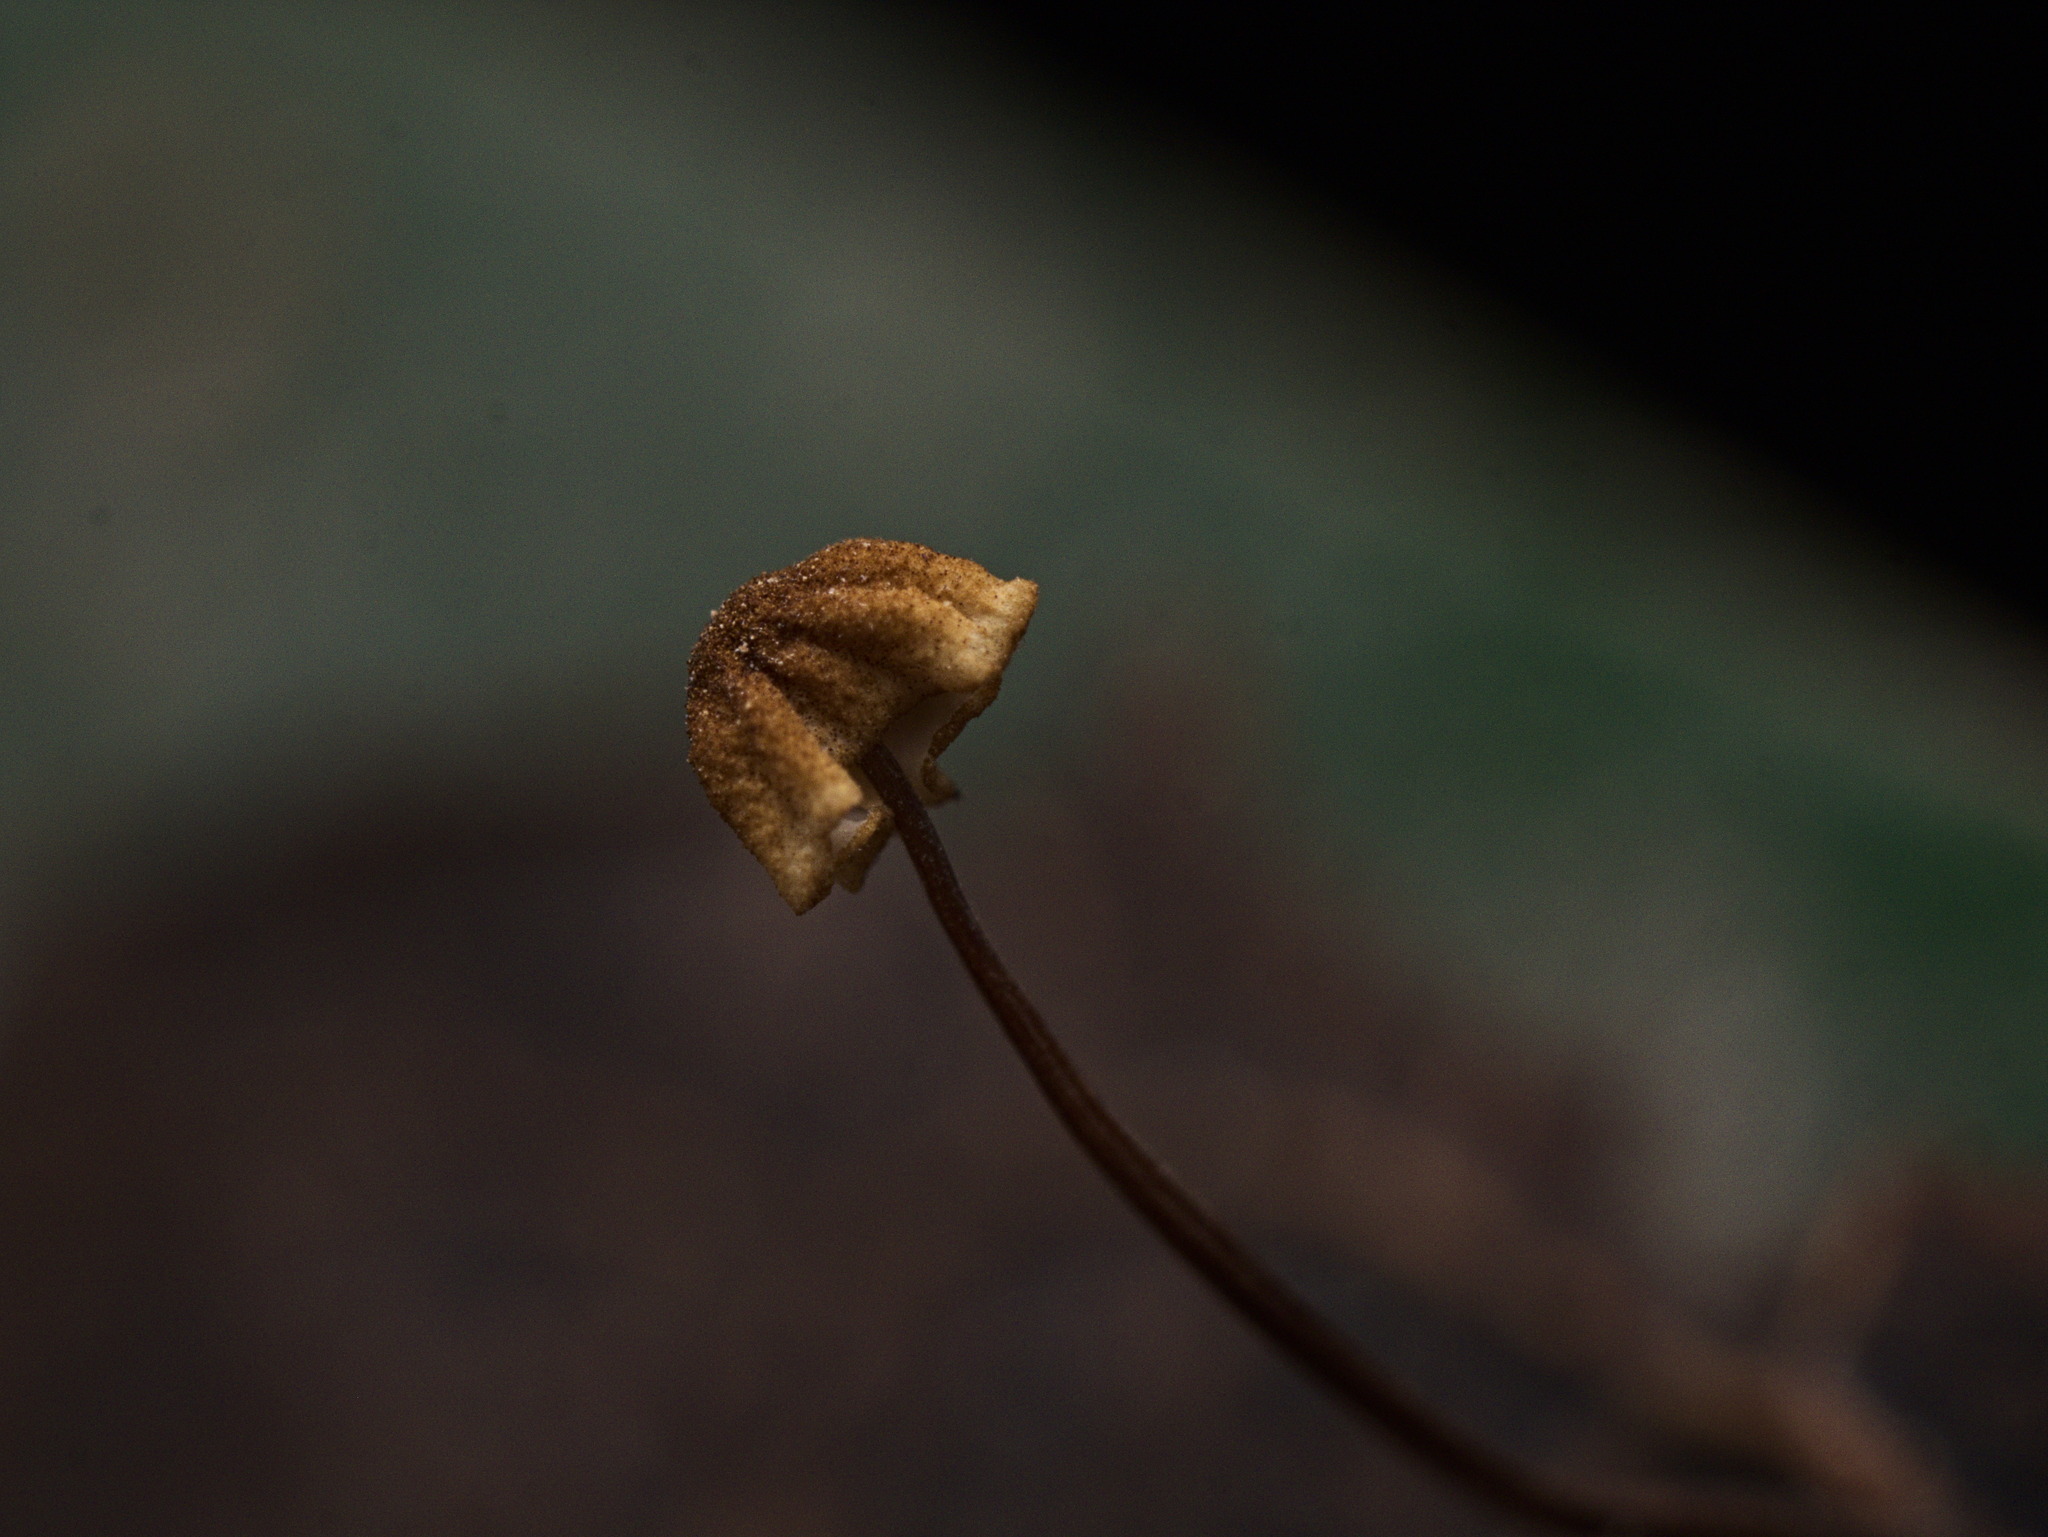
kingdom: Fungi
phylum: Basidiomycota
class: Agaricomycetes
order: Agaricales
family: Marasmiaceae
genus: Marasmius
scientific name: Marasmius siccus
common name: Orange pinwheel
